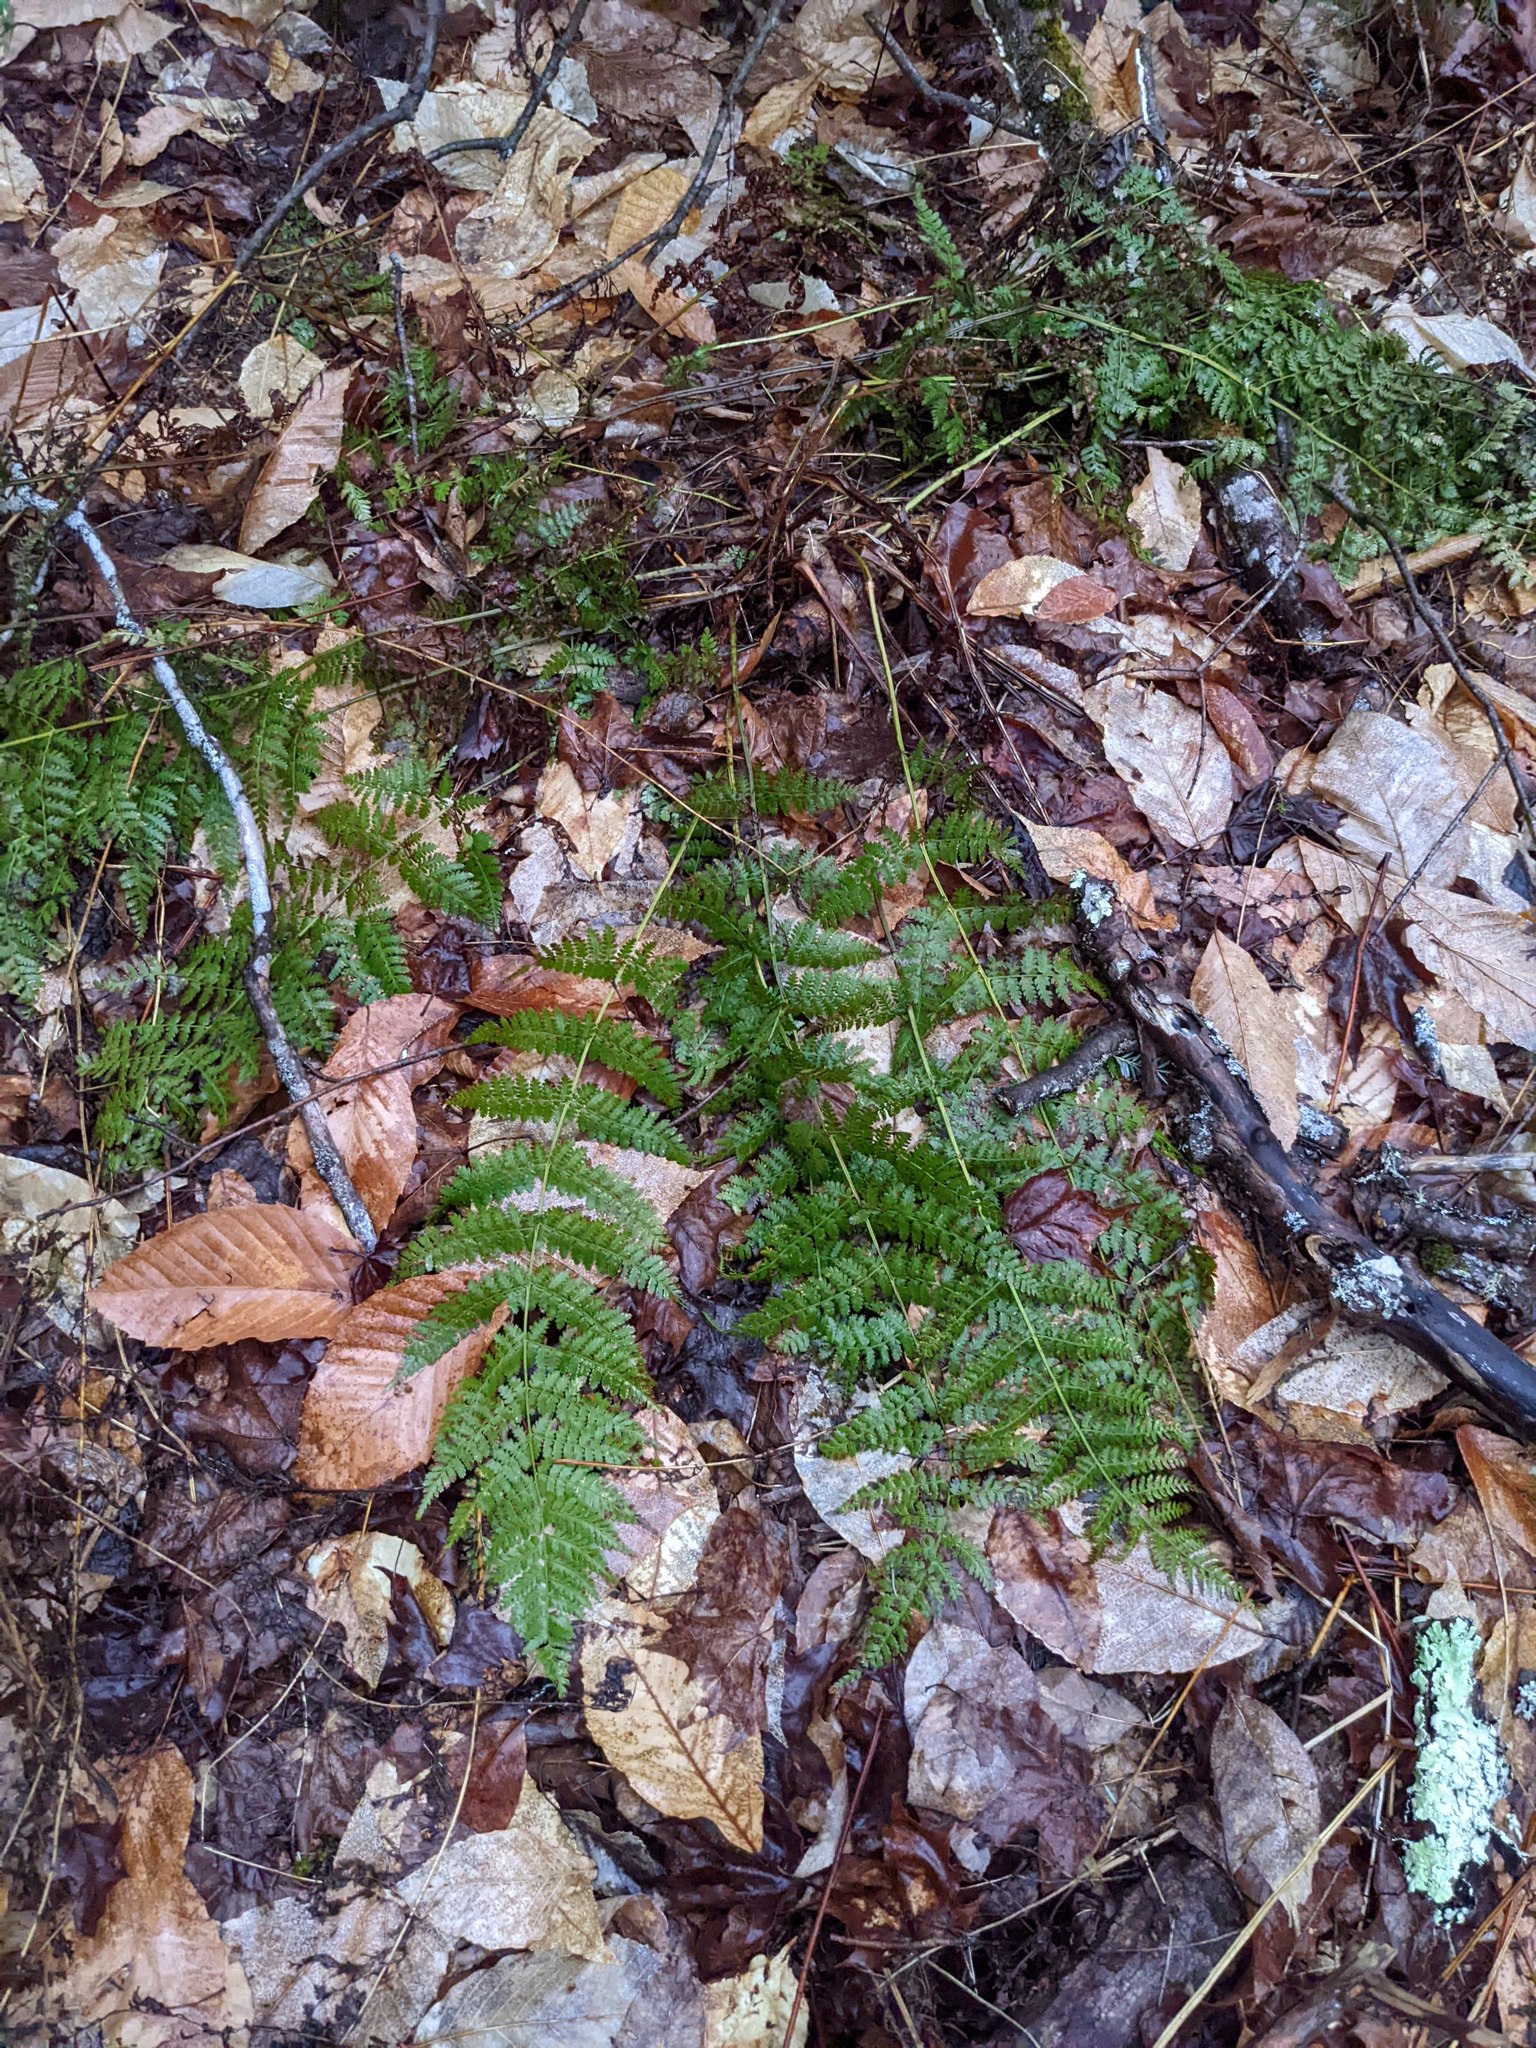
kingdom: Plantae
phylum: Tracheophyta
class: Magnoliopsida
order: Fagales
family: Fagaceae
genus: Fagus
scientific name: Fagus grandifolia
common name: American beech
